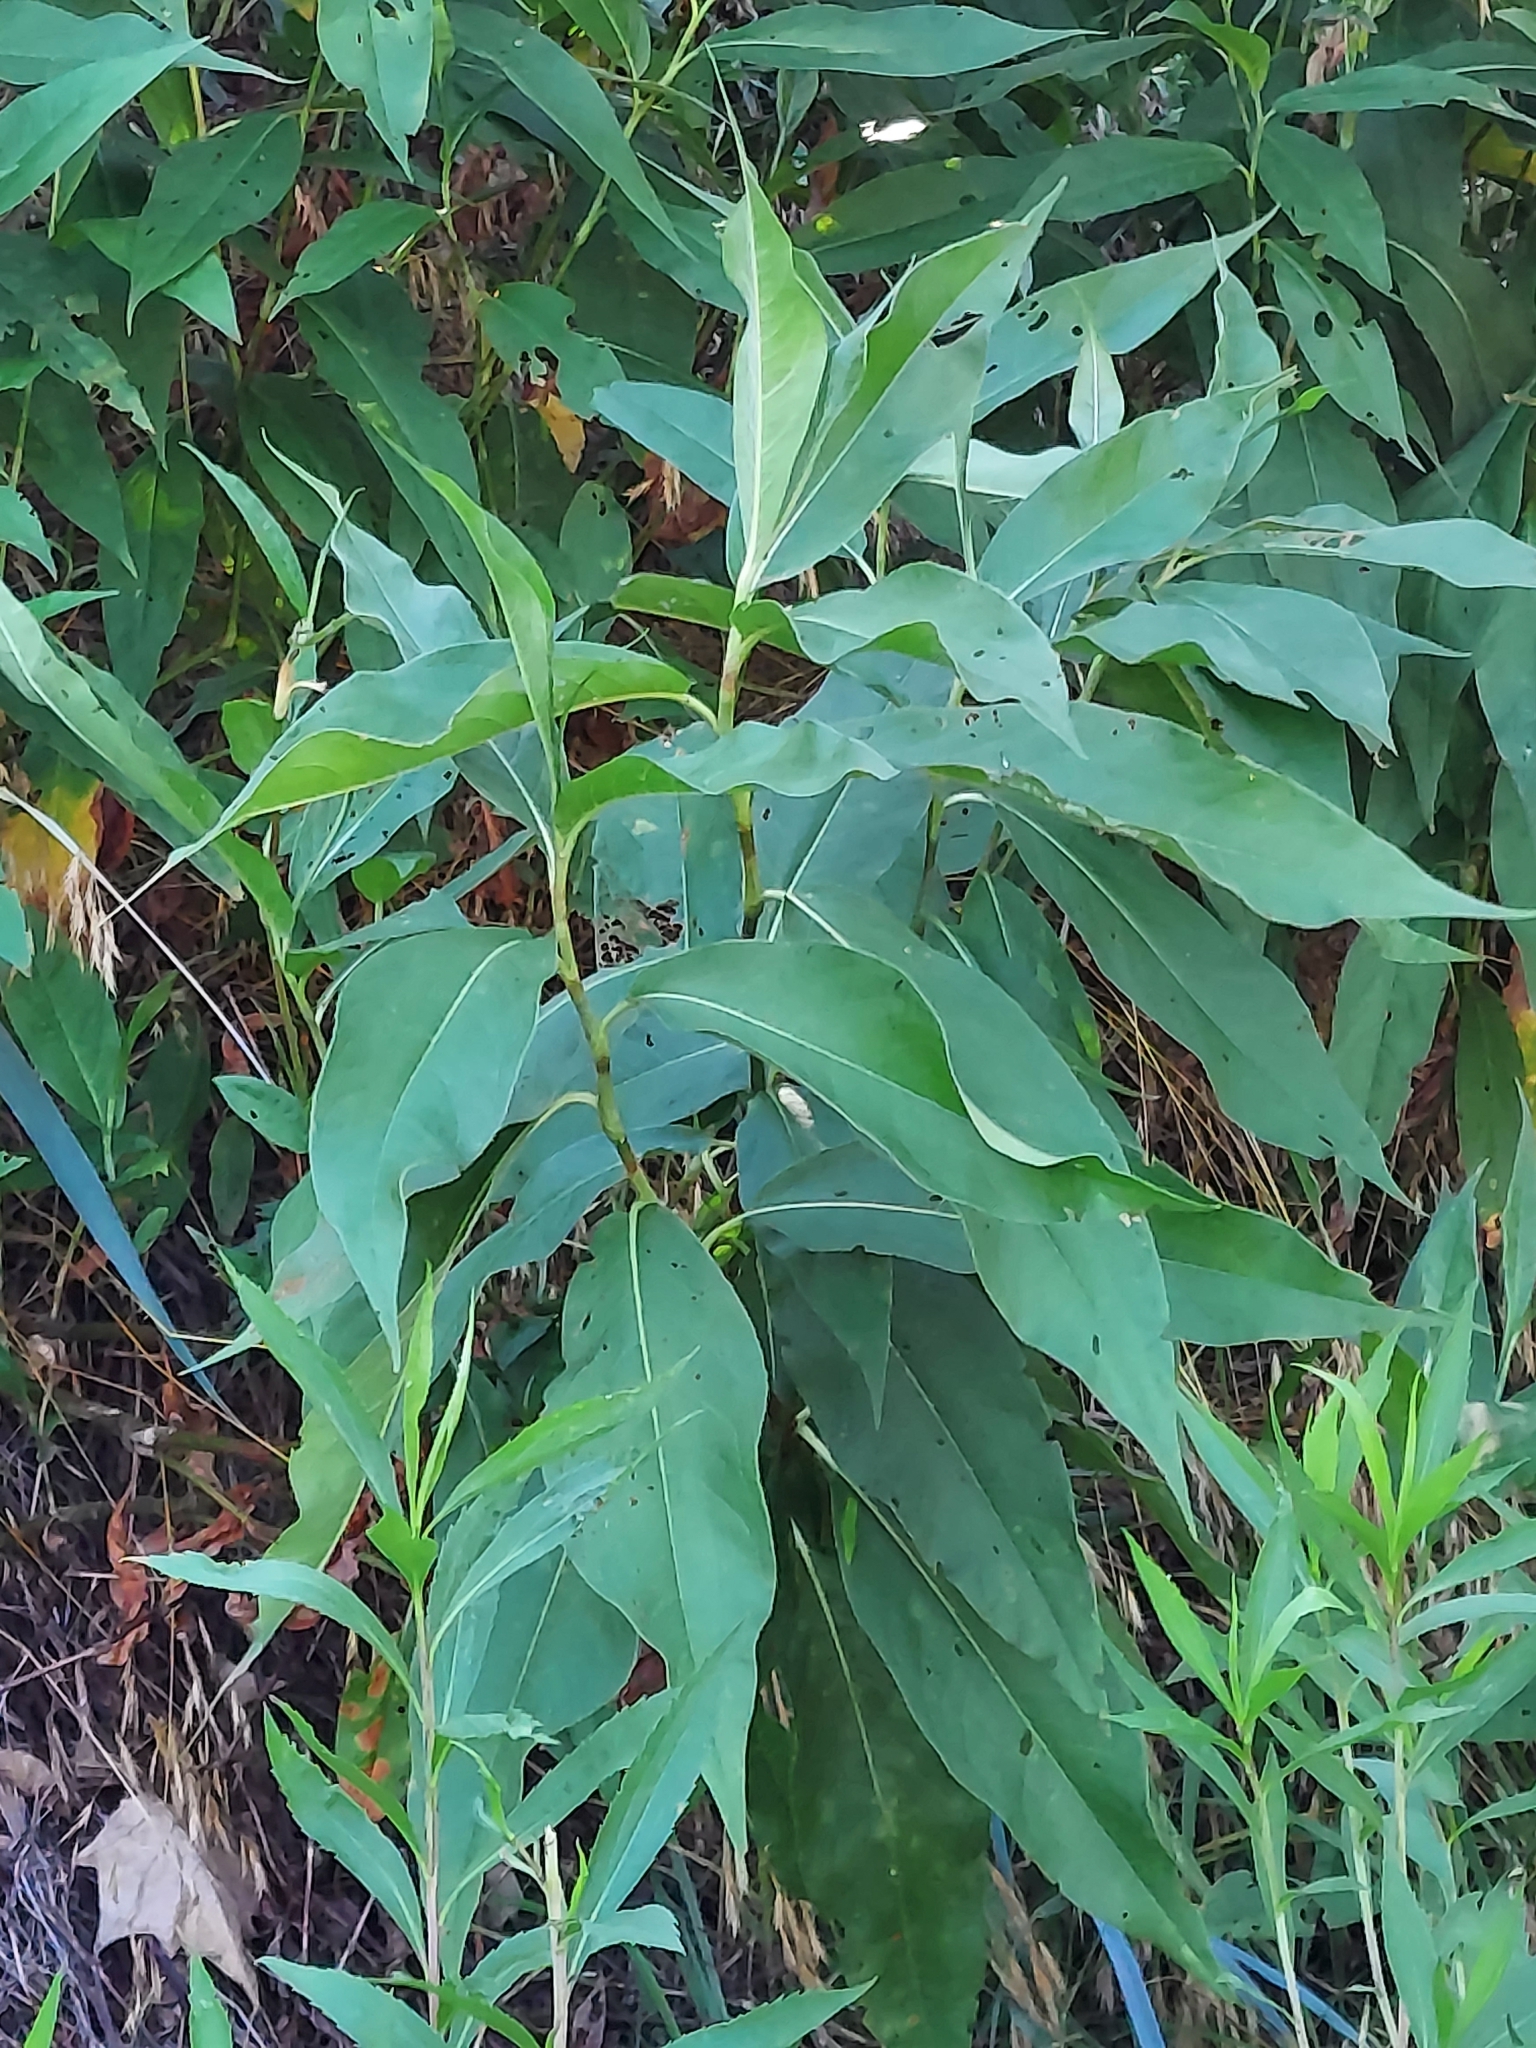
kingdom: Plantae
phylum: Tracheophyta
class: Magnoliopsida
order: Caryophyllales
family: Polygonaceae
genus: Persicaria
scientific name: Persicaria amphibia
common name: Amphibious bistort
